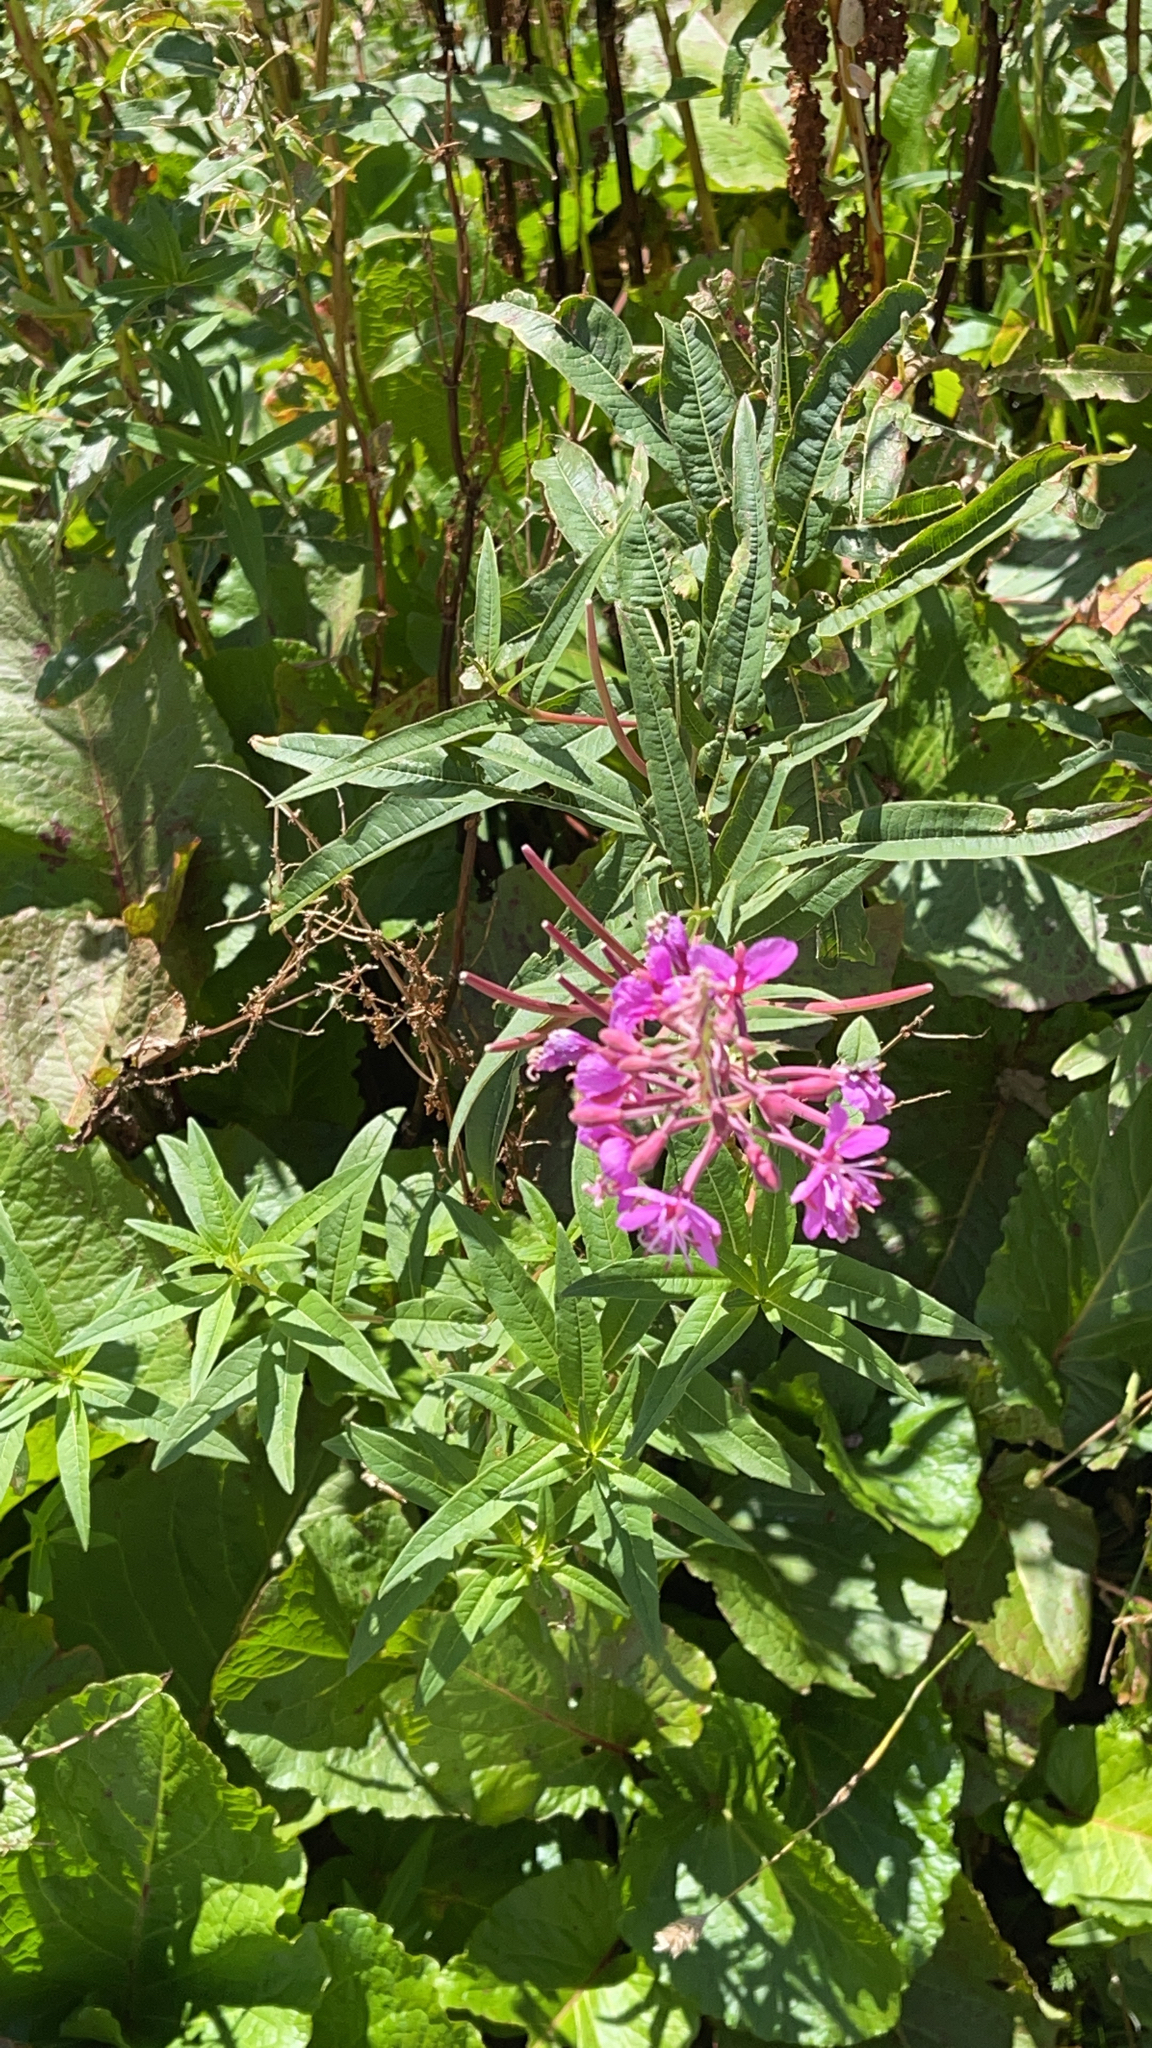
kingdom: Plantae
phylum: Tracheophyta
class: Magnoliopsida
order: Myrtales
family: Onagraceae
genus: Chamaenerion
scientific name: Chamaenerion angustifolium
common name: Fireweed
